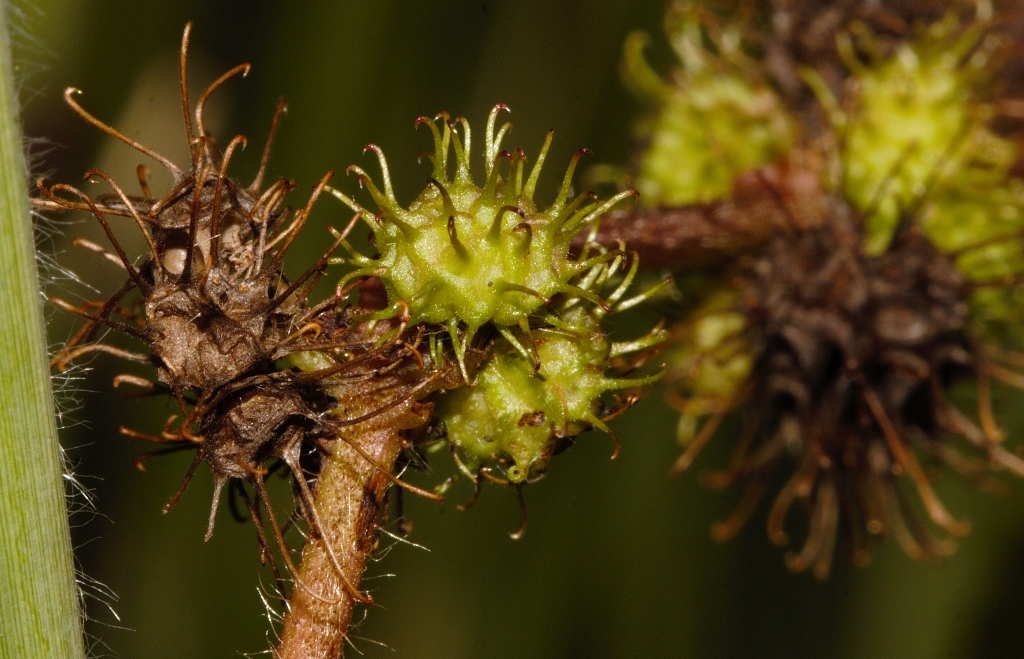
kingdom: Plantae
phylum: Tracheophyta
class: Magnoliopsida
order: Malvales
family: Malvaceae
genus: Triumfetta
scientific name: Triumfetta annua
